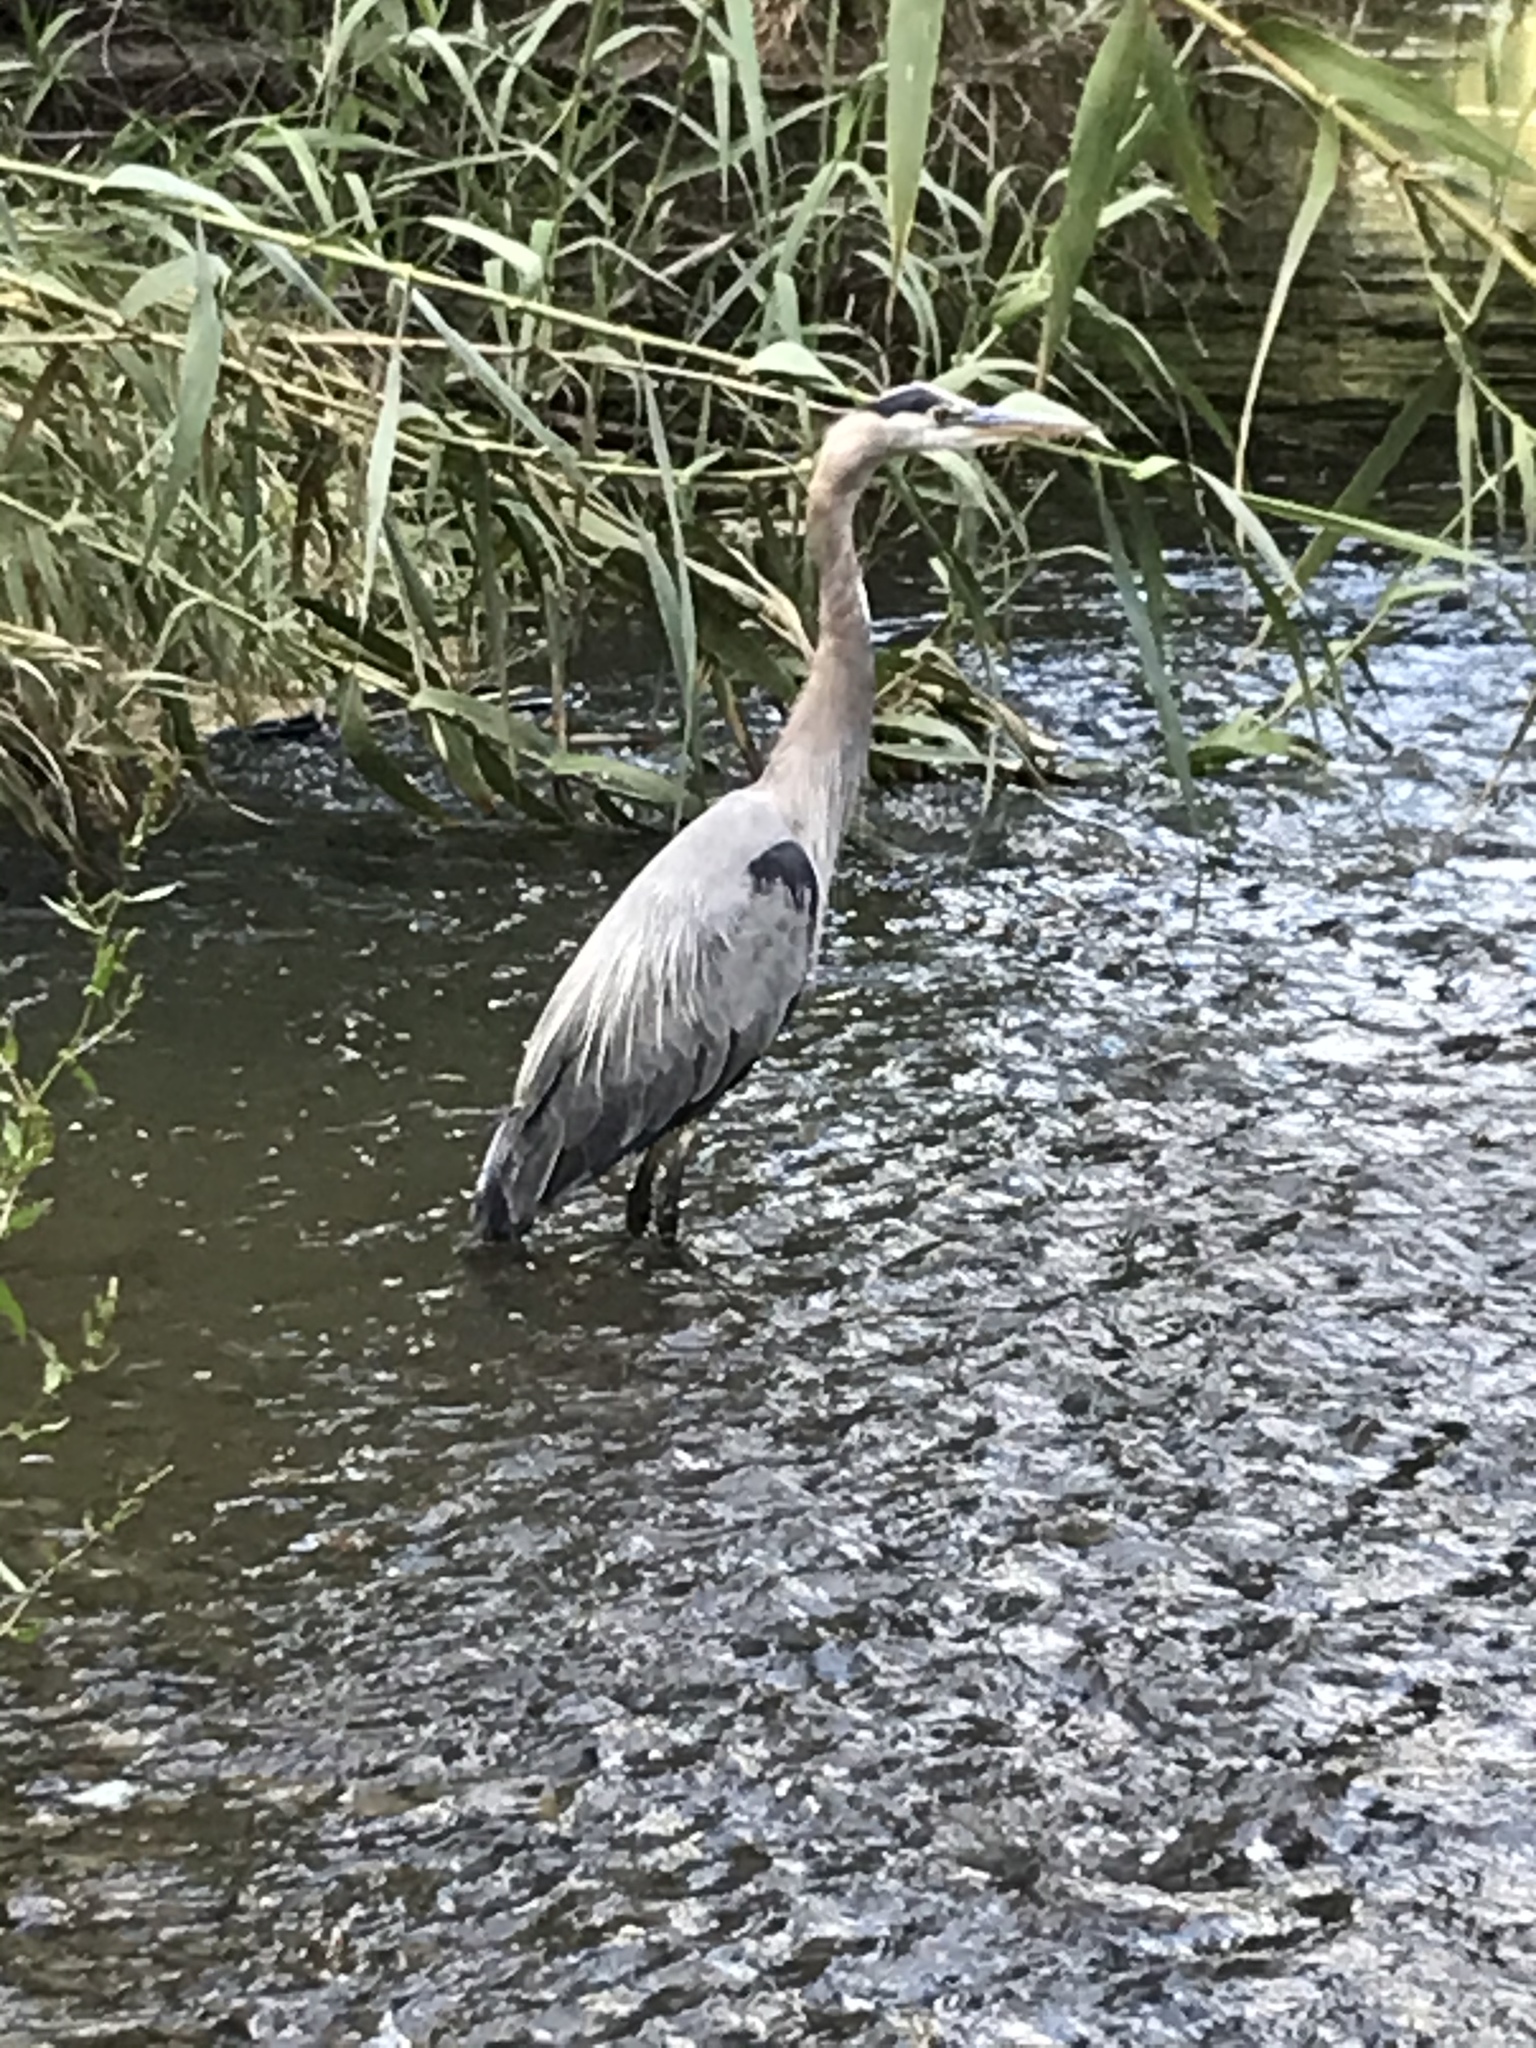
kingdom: Animalia
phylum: Chordata
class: Aves
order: Pelecaniformes
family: Ardeidae
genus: Ardea
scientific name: Ardea herodias
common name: Great blue heron
